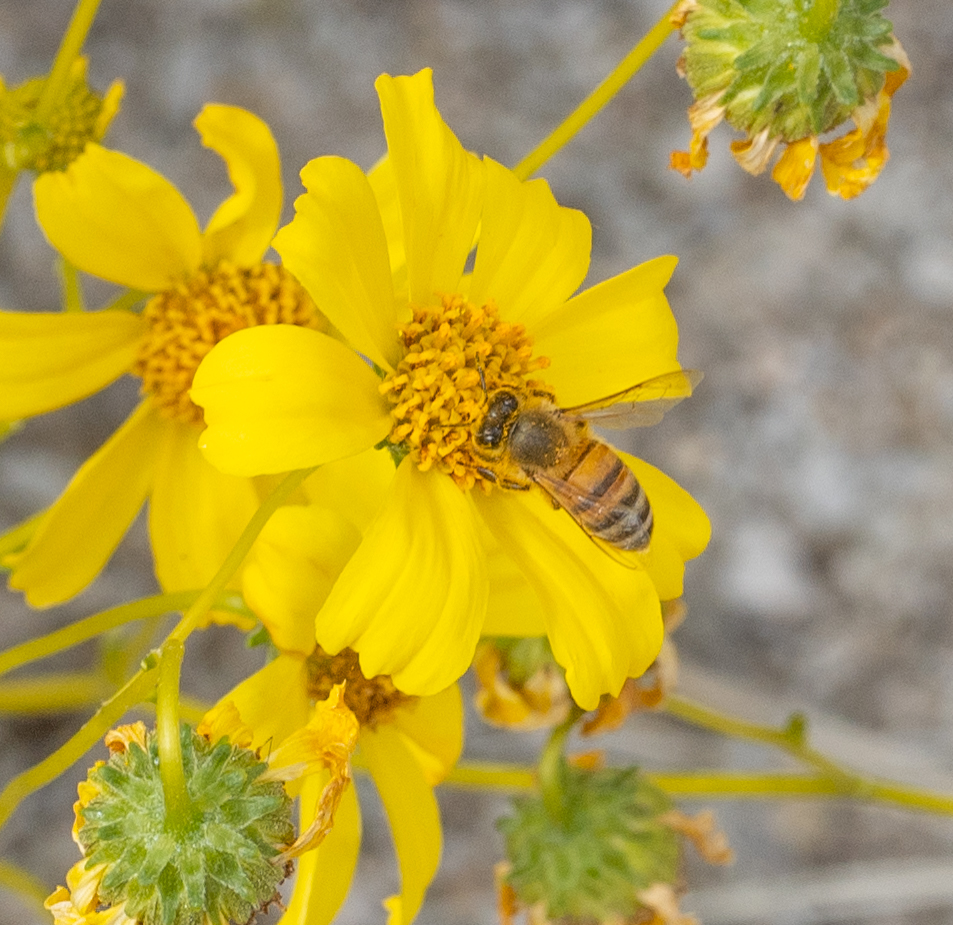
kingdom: Animalia
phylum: Arthropoda
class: Insecta
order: Hymenoptera
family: Apidae
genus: Apis
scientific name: Apis mellifera
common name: Honey bee
